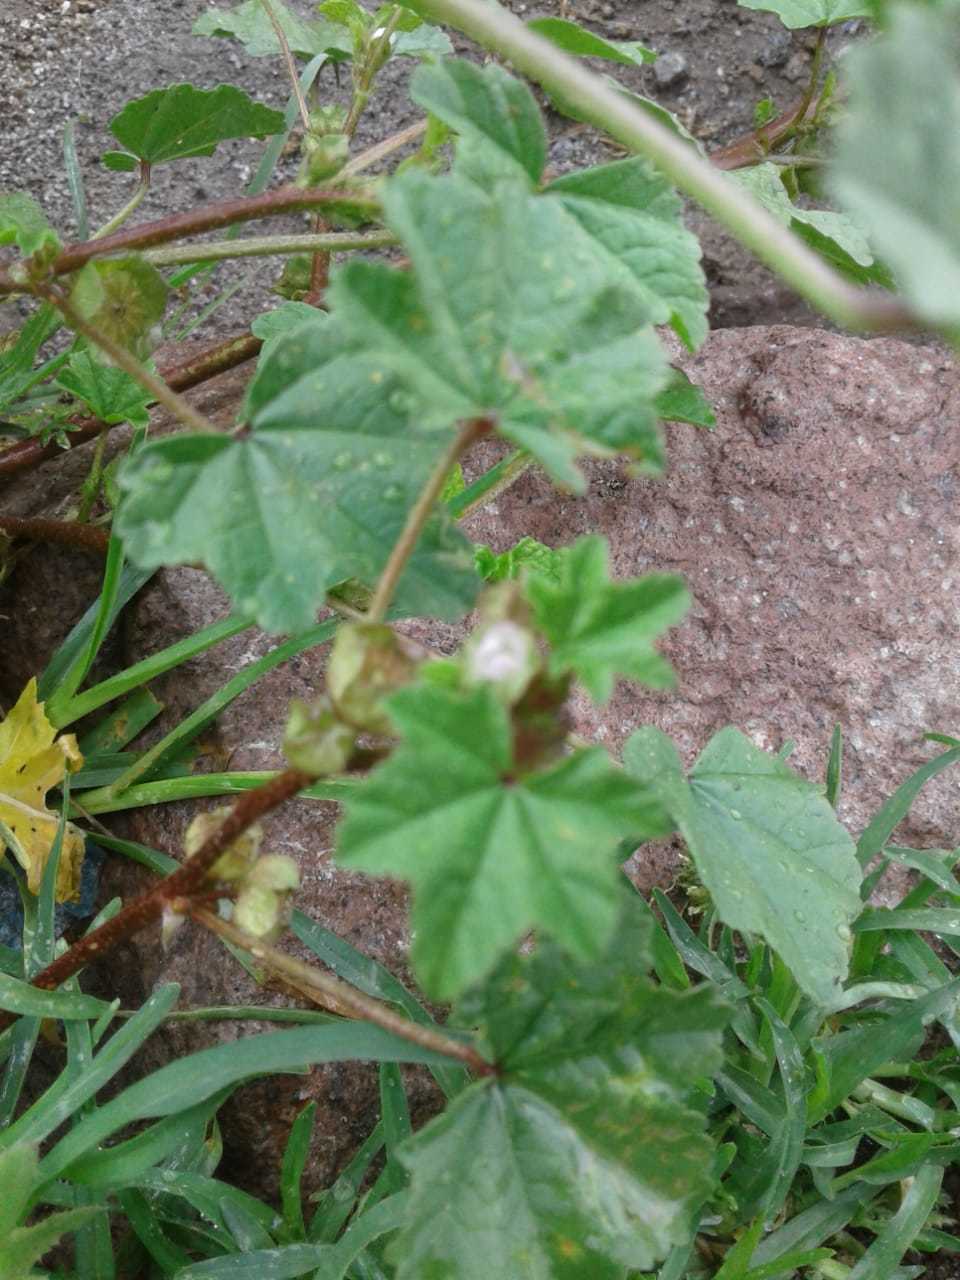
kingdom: Plantae
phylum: Tracheophyta
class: Magnoliopsida
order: Malvales
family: Malvaceae
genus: Malva
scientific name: Malva parviflora
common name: Least mallow
